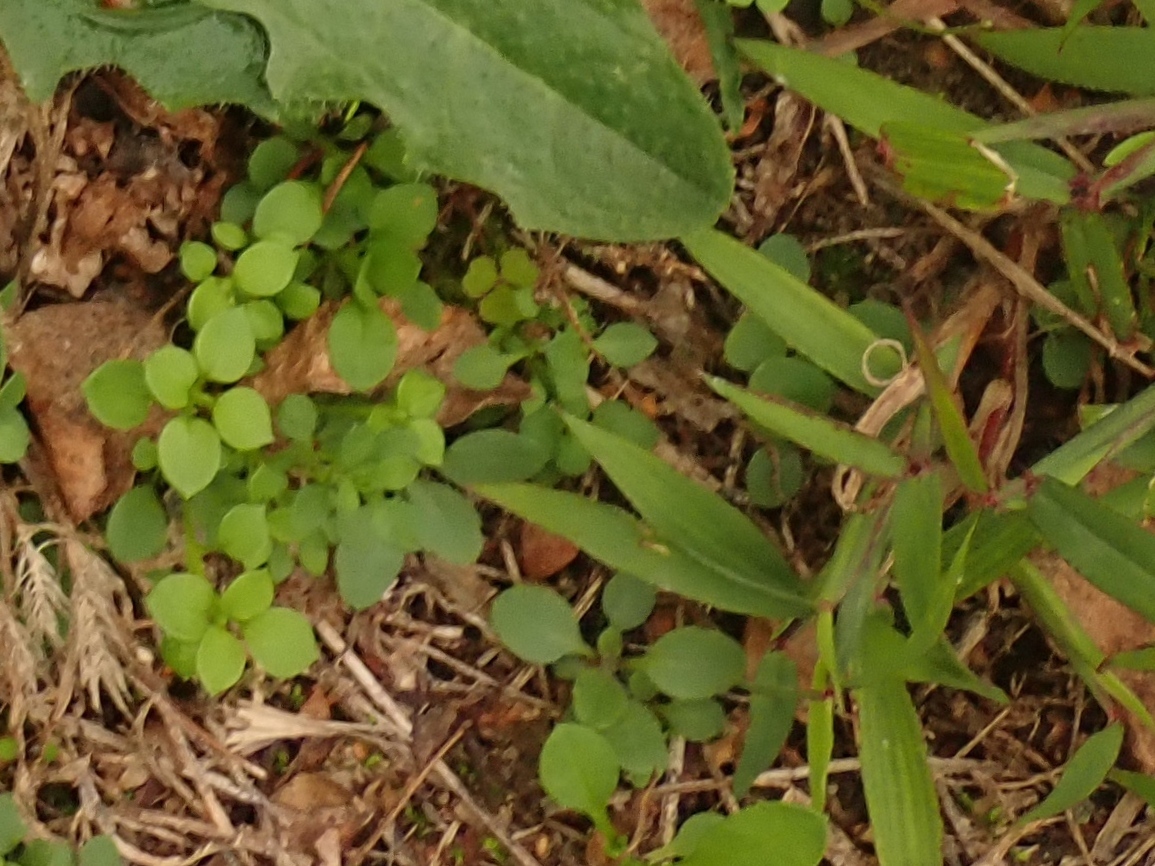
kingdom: Plantae
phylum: Tracheophyta
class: Liliopsida
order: Poales
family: Poaceae
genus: Digitaria
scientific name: Digitaria sanguinalis
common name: Hairy crabgrass
